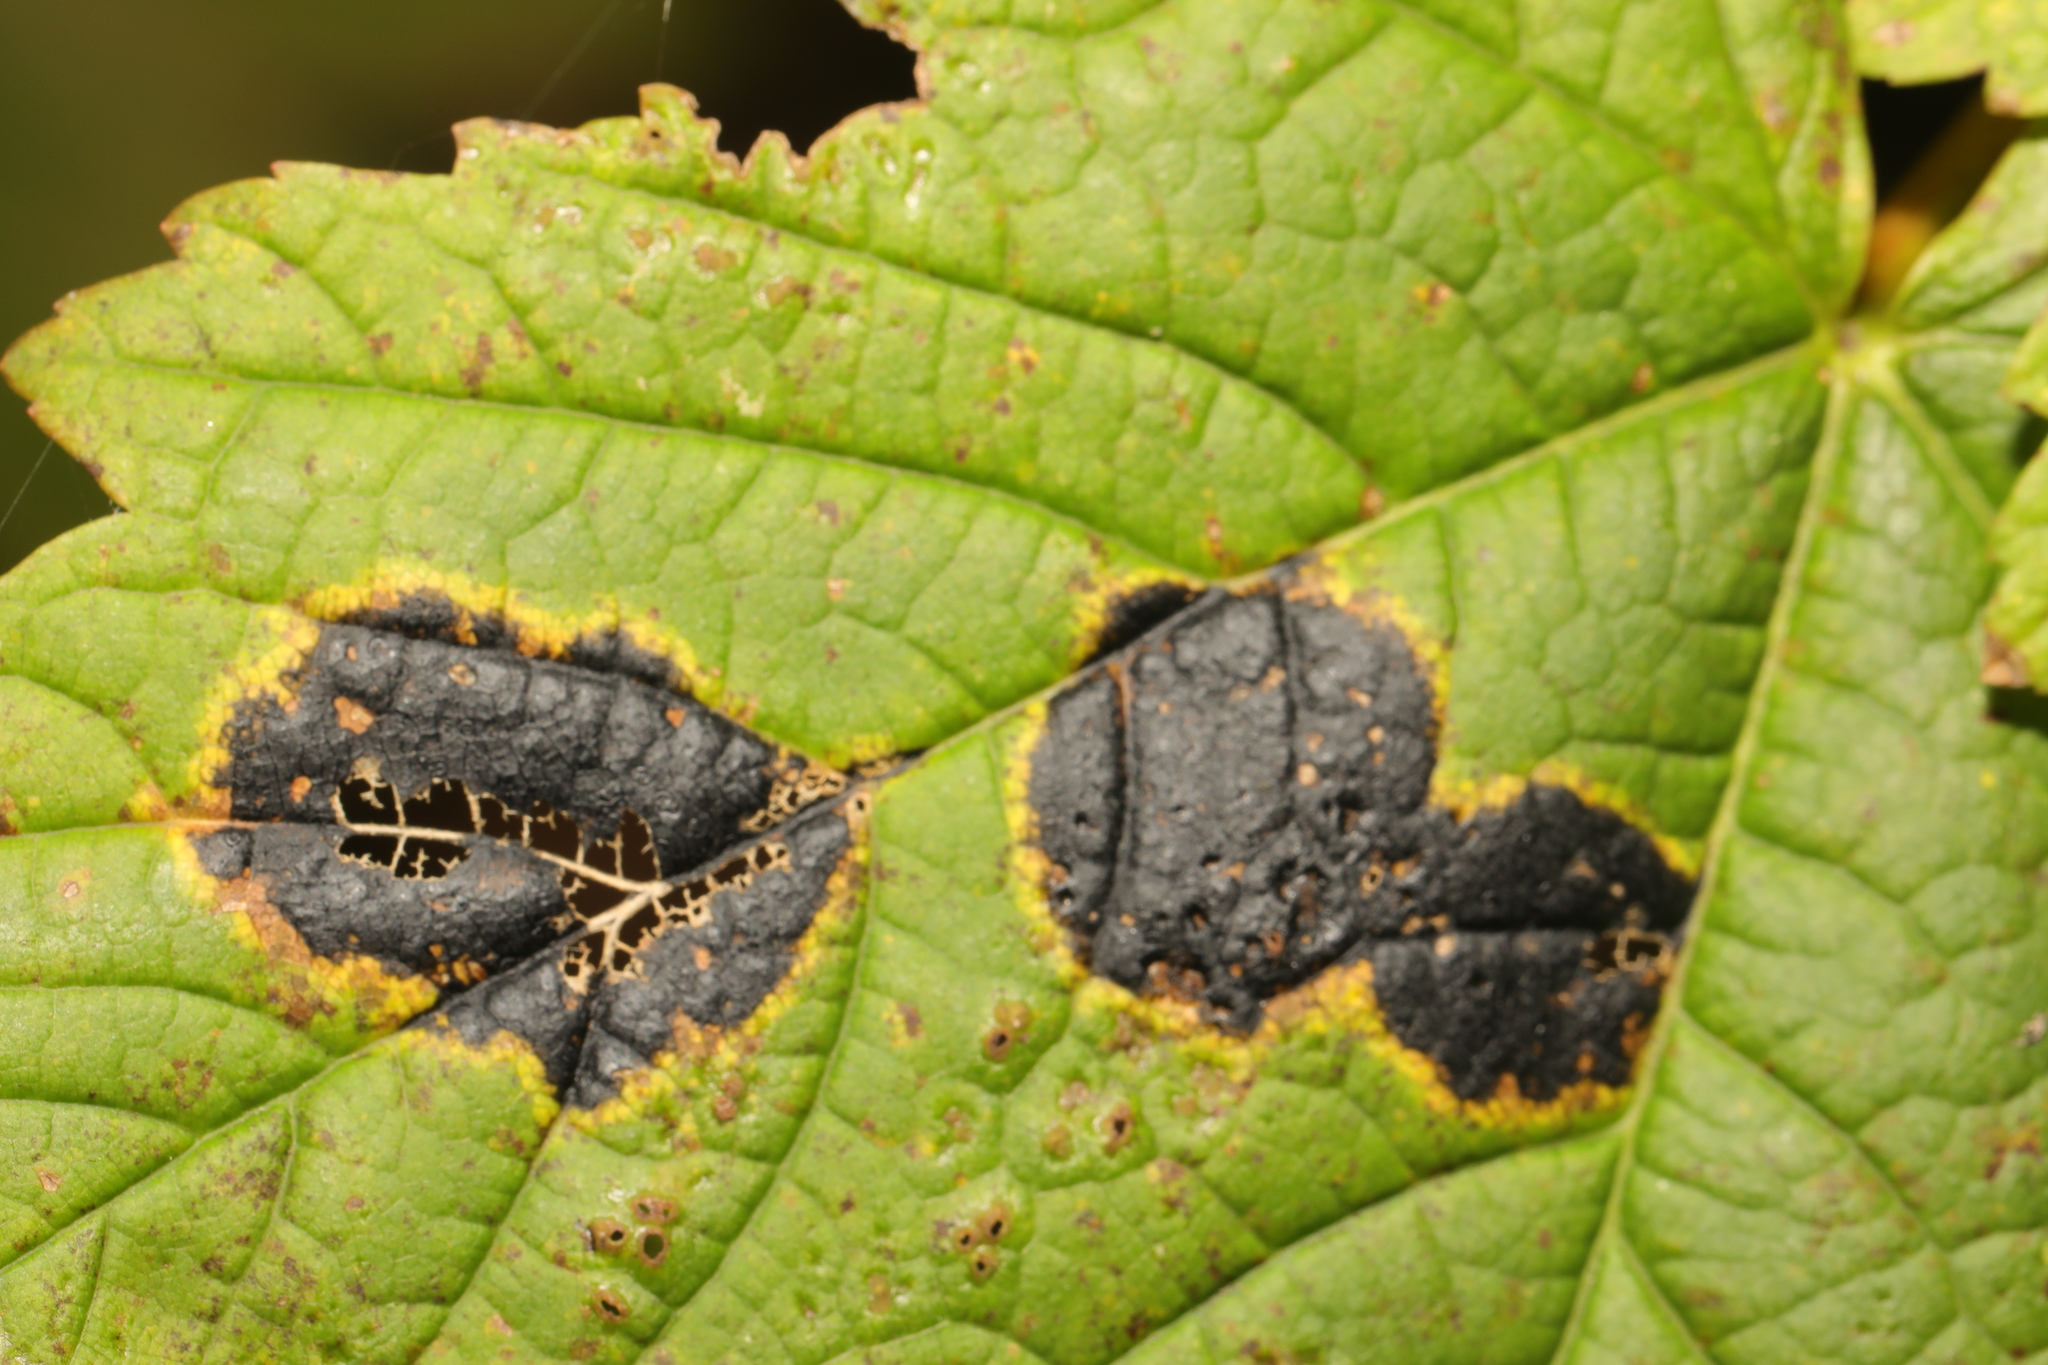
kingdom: Fungi
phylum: Ascomycota
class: Leotiomycetes
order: Rhytismatales
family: Rhytismataceae
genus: Rhytisma
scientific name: Rhytisma acerinum
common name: European tar spot
